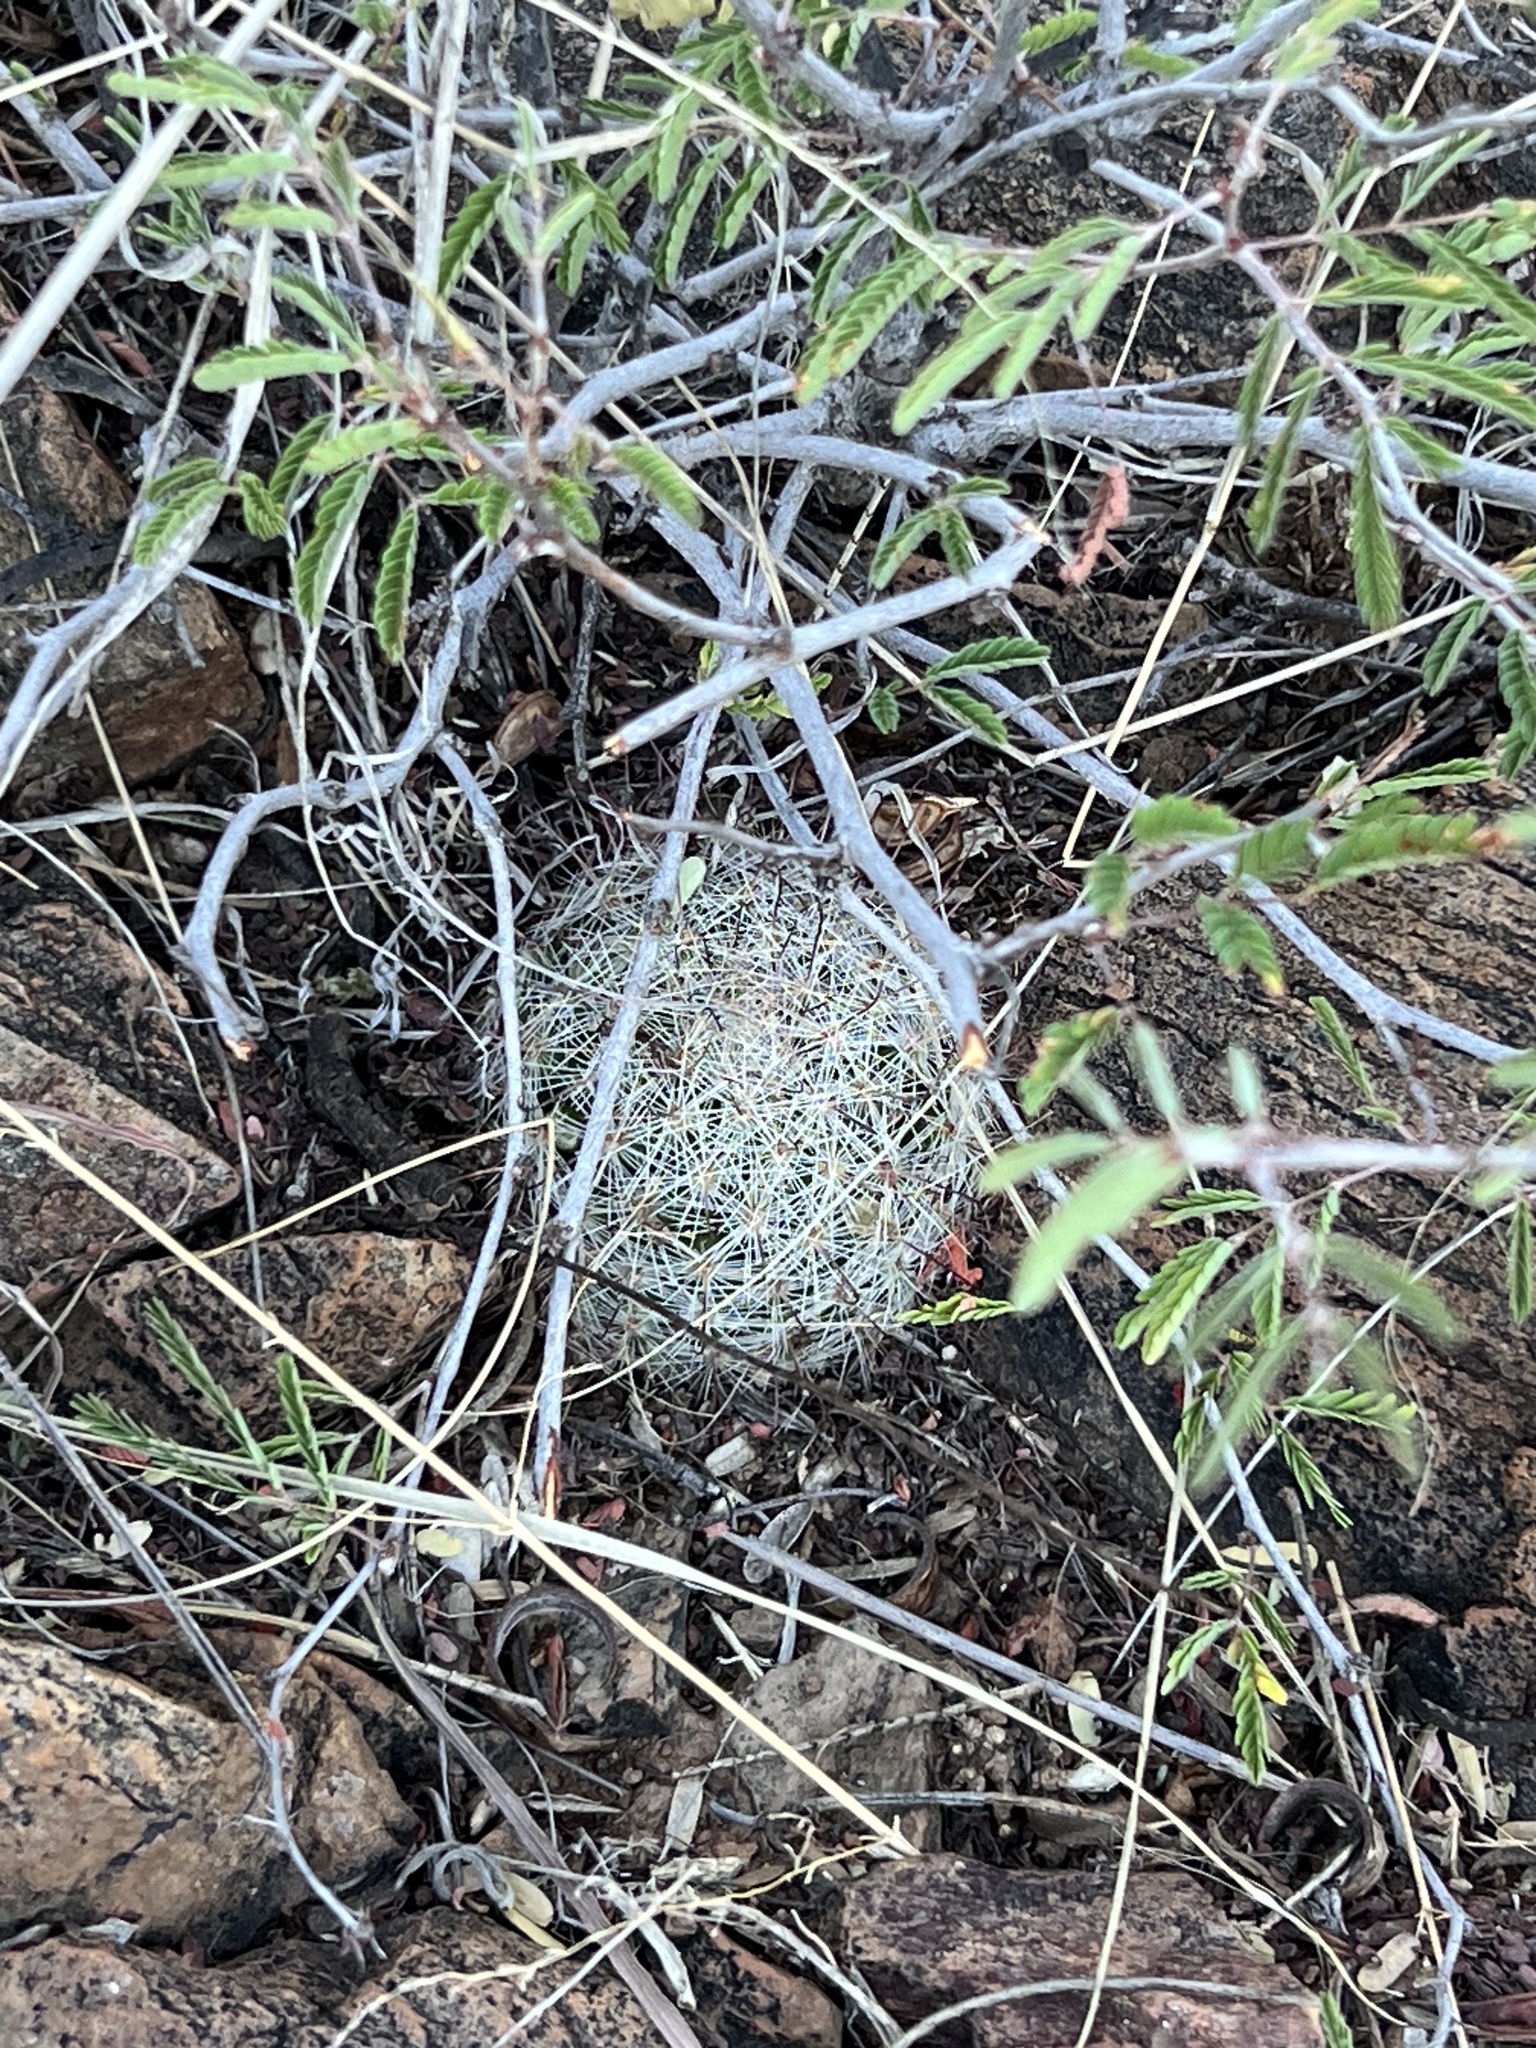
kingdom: Plantae
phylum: Tracheophyta
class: Magnoliopsida
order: Caryophyllales
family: Cactaceae
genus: Cochemiea
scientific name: Cochemiea grahamii
